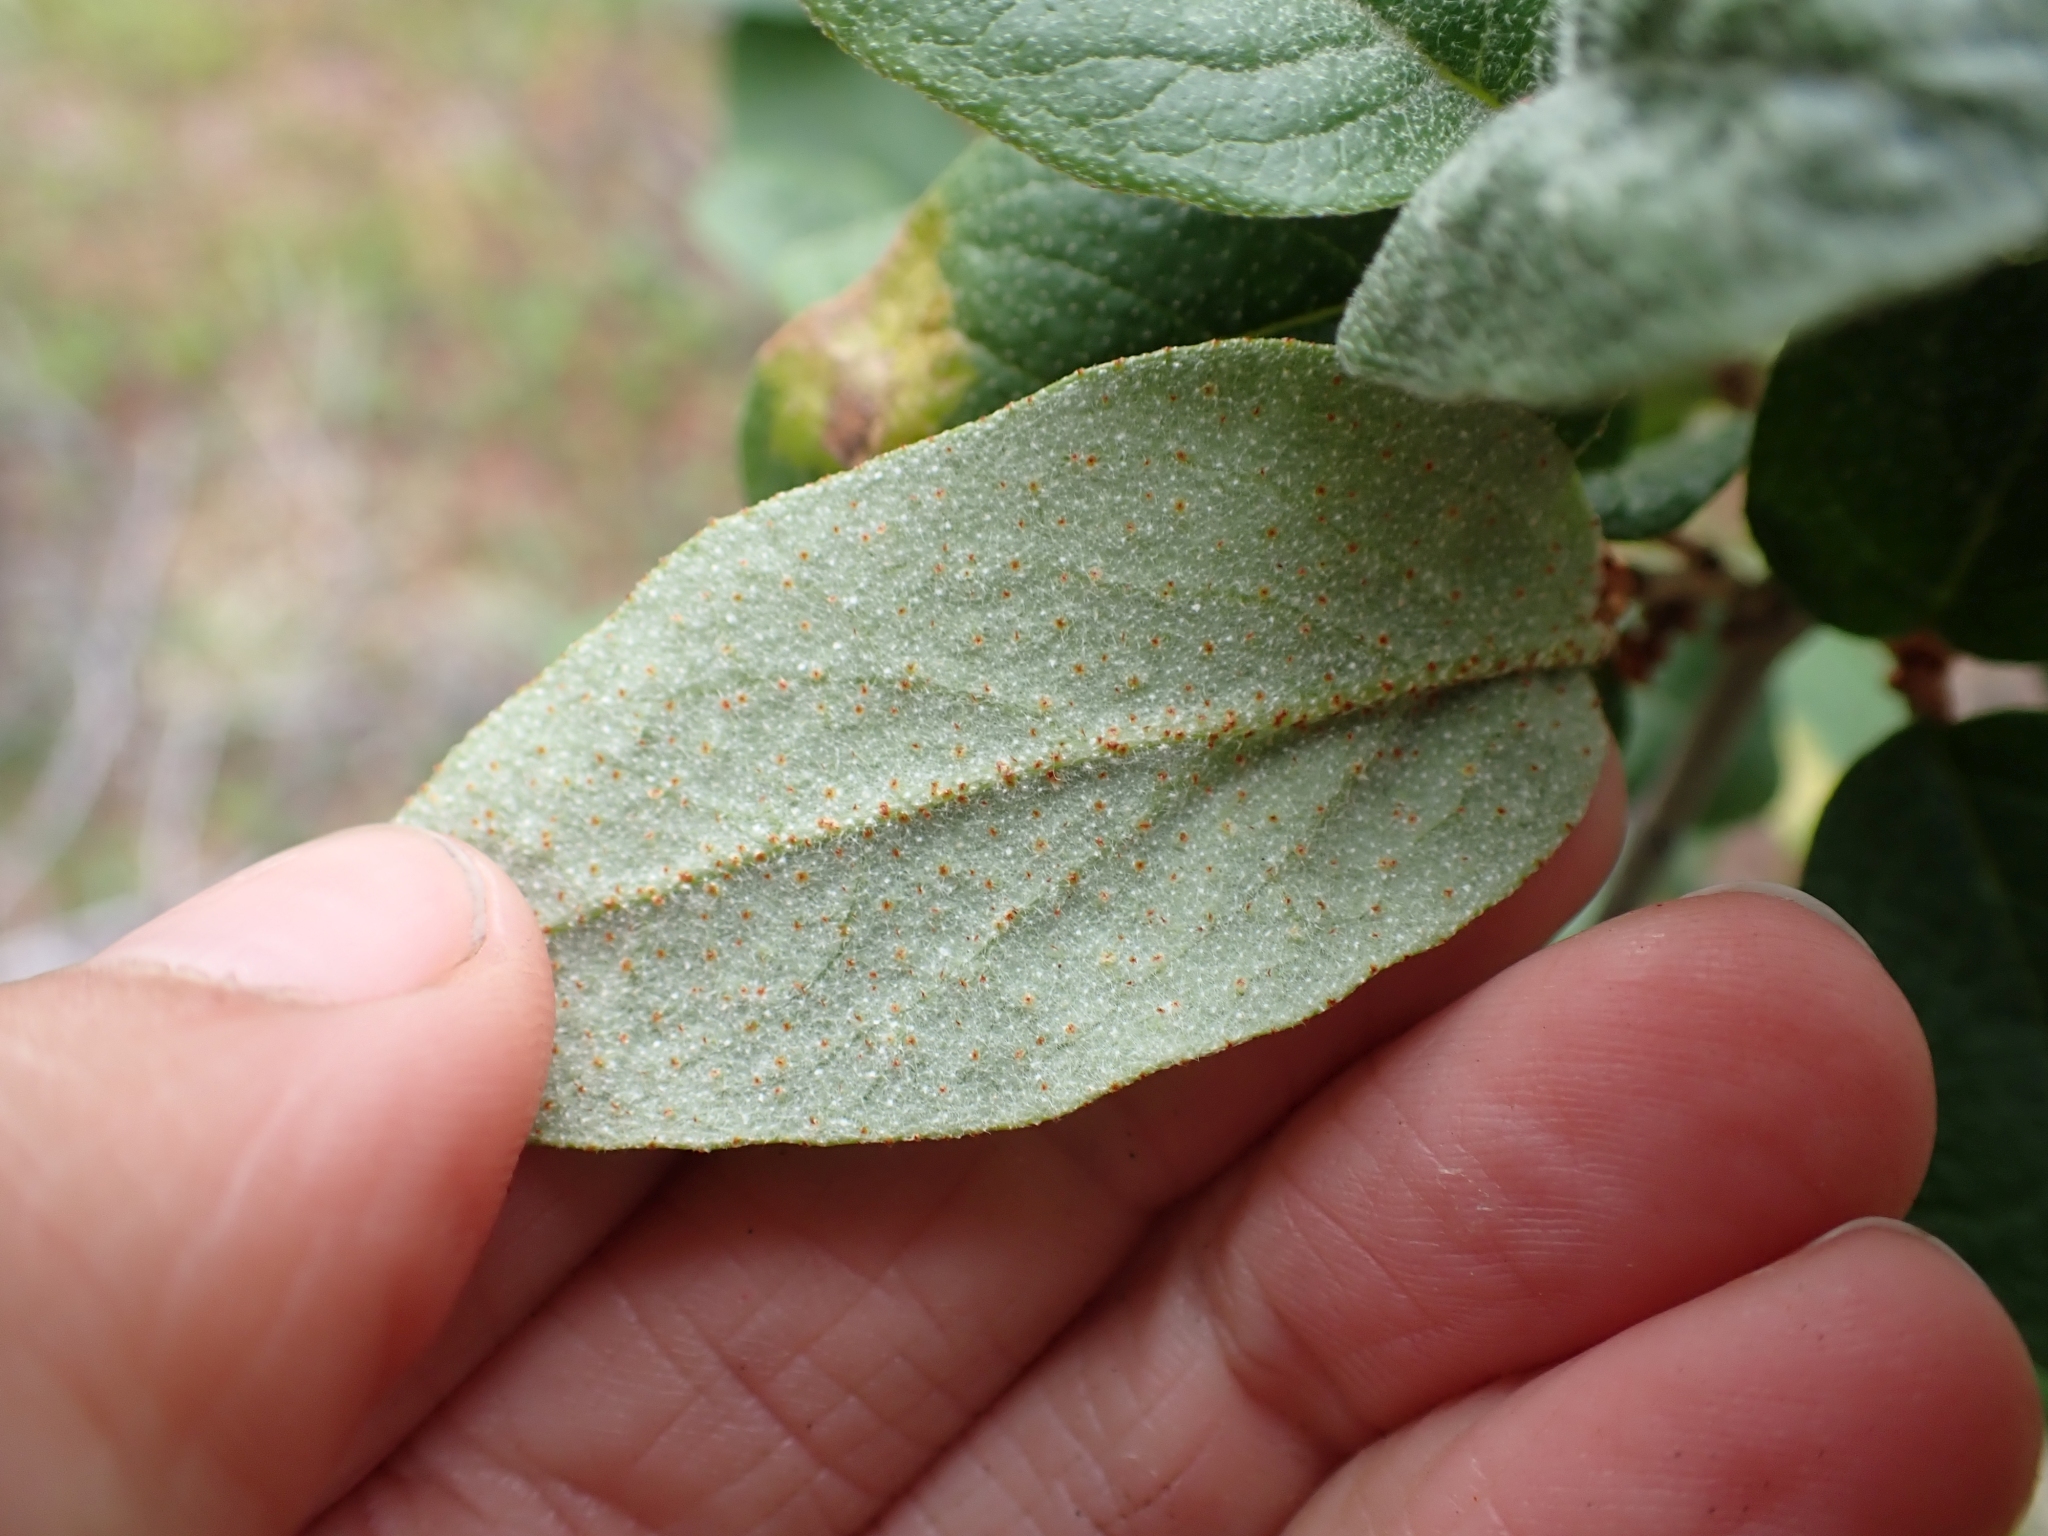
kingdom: Plantae
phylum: Tracheophyta
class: Magnoliopsida
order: Rosales
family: Elaeagnaceae
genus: Shepherdia
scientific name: Shepherdia canadensis
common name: Soapberry
